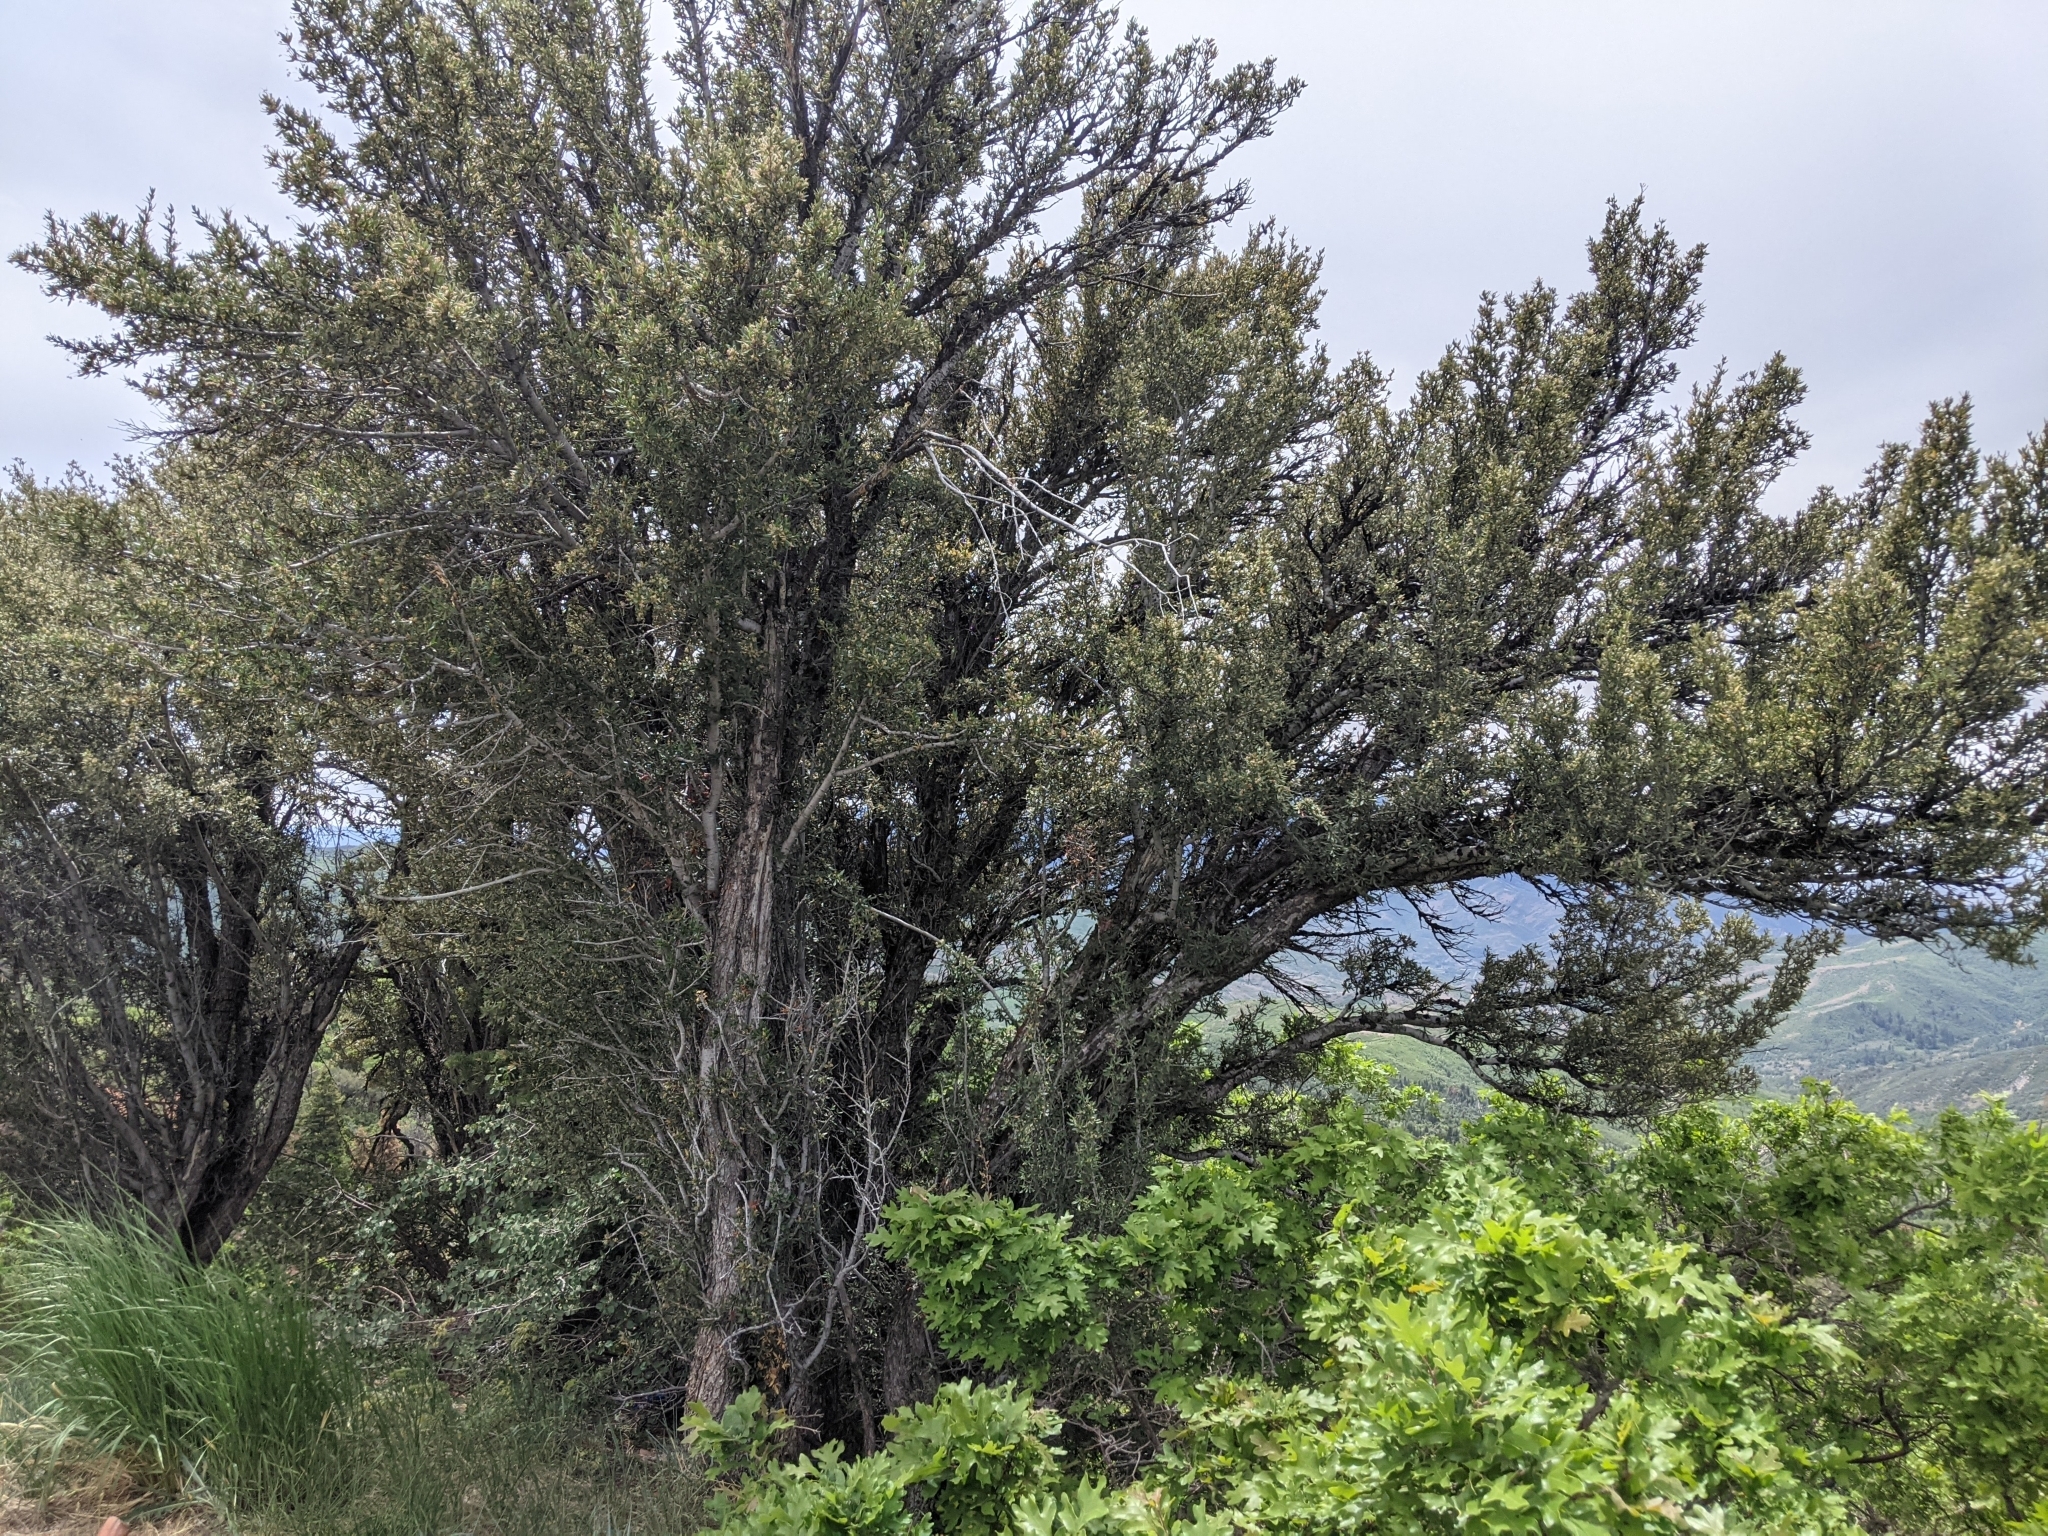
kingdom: Plantae
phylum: Tracheophyta
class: Magnoliopsida
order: Rosales
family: Rosaceae
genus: Cercocarpus
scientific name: Cercocarpus ledifolius
